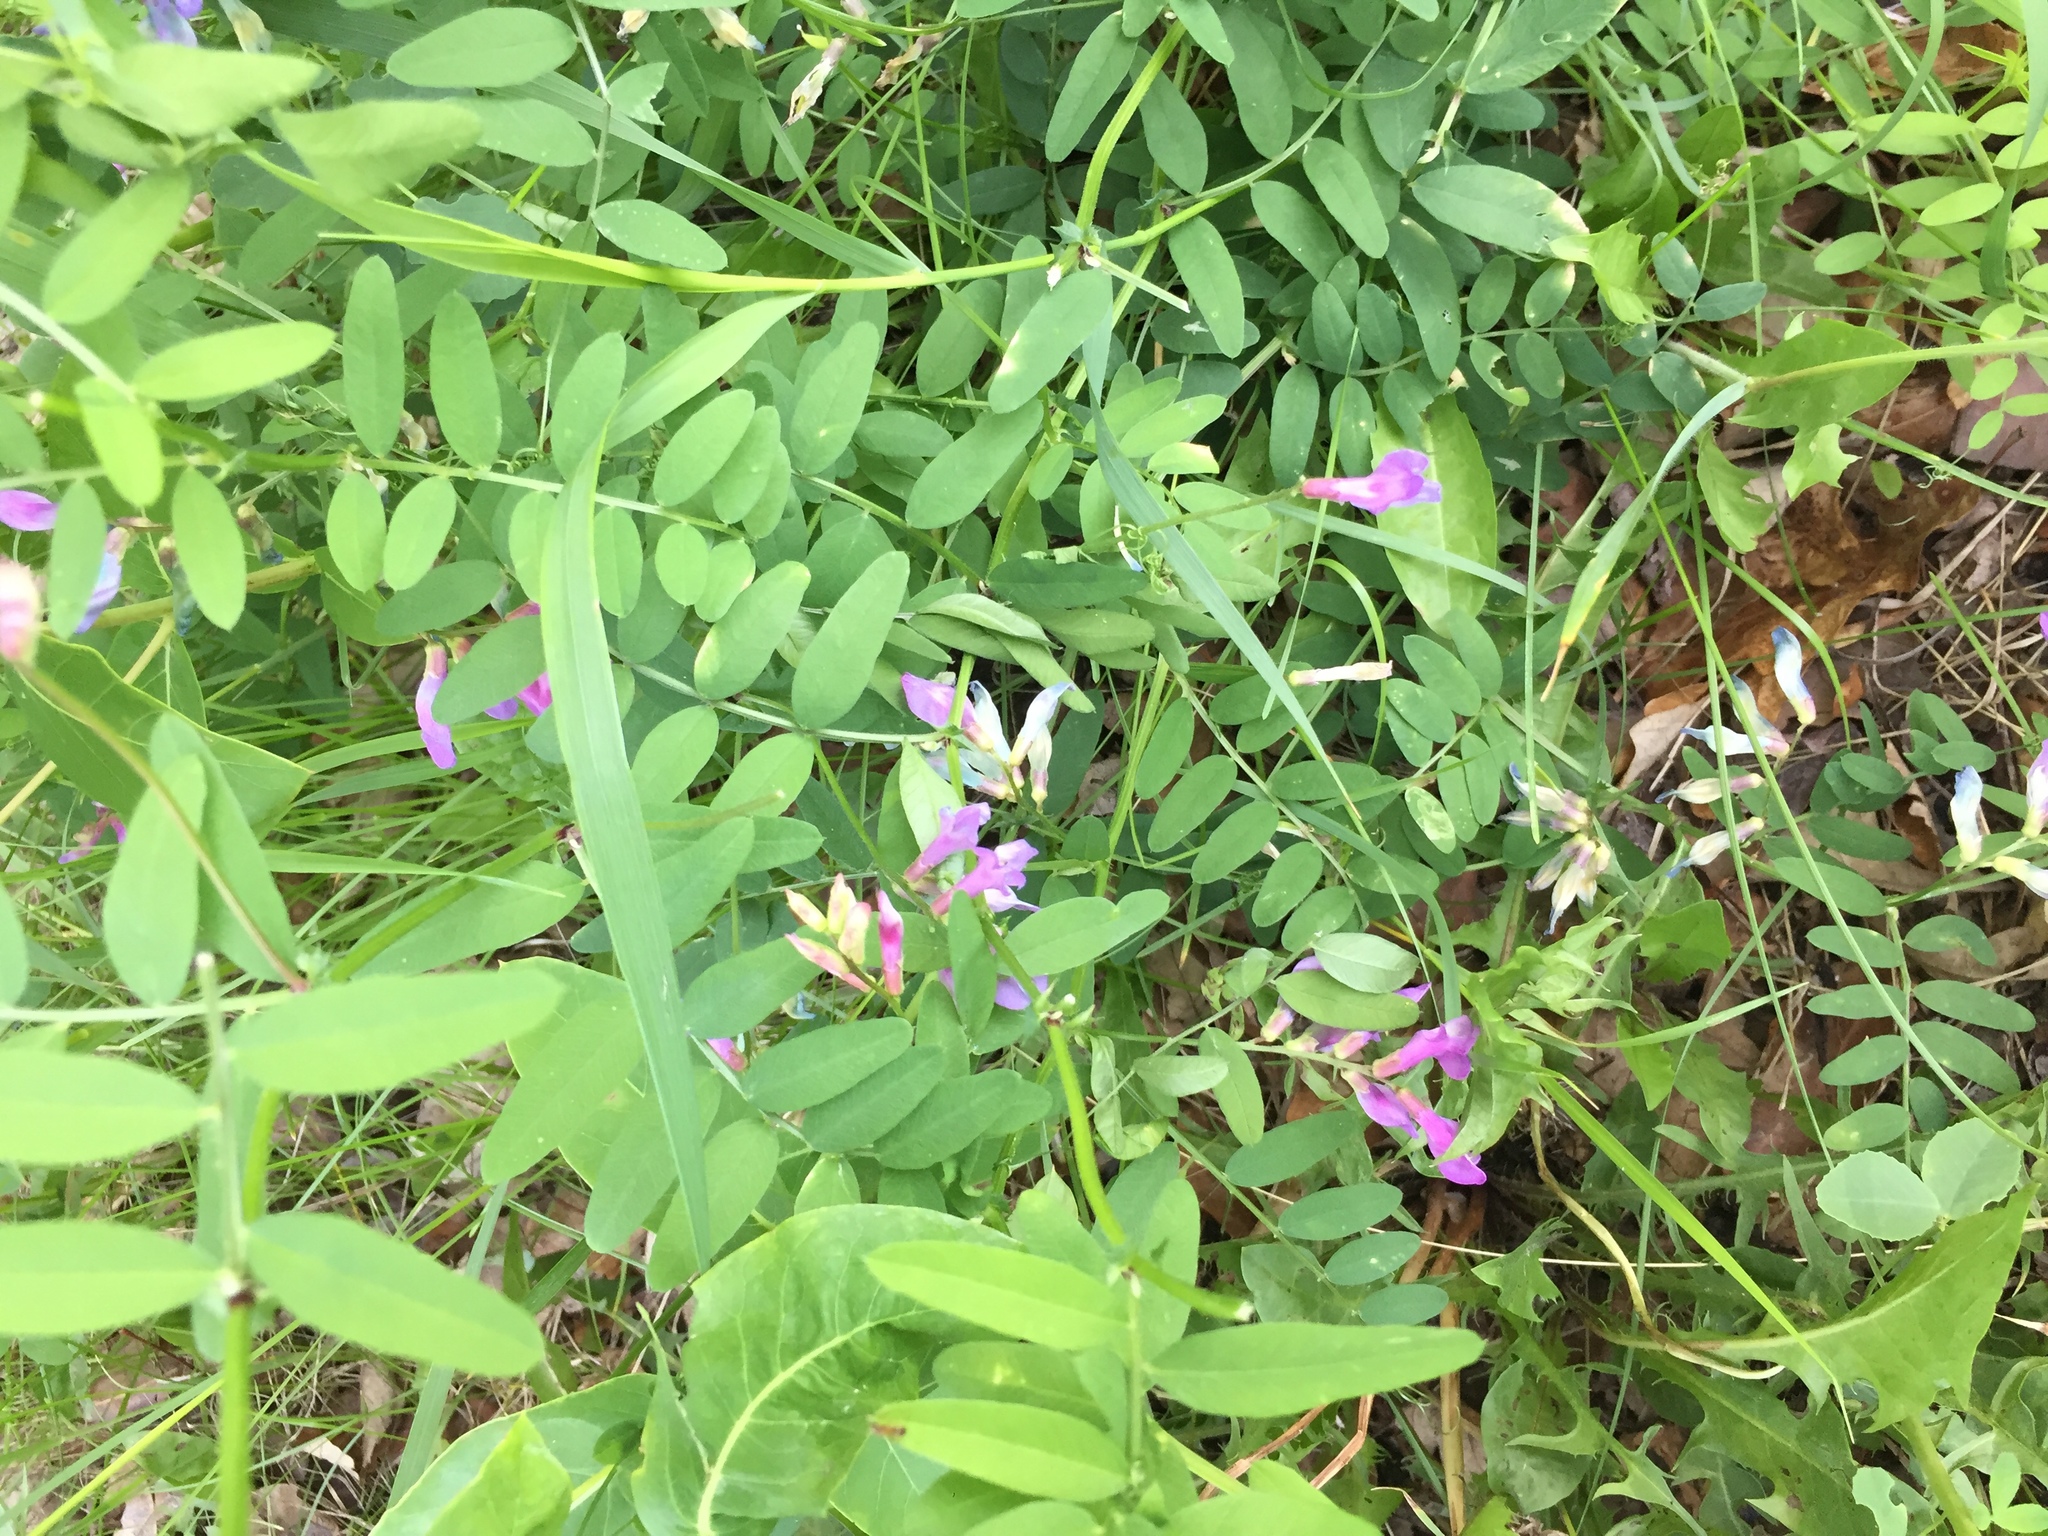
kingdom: Plantae
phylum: Tracheophyta
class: Magnoliopsida
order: Fabales
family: Fabaceae
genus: Vicia
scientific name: Vicia americana
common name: American vetch
